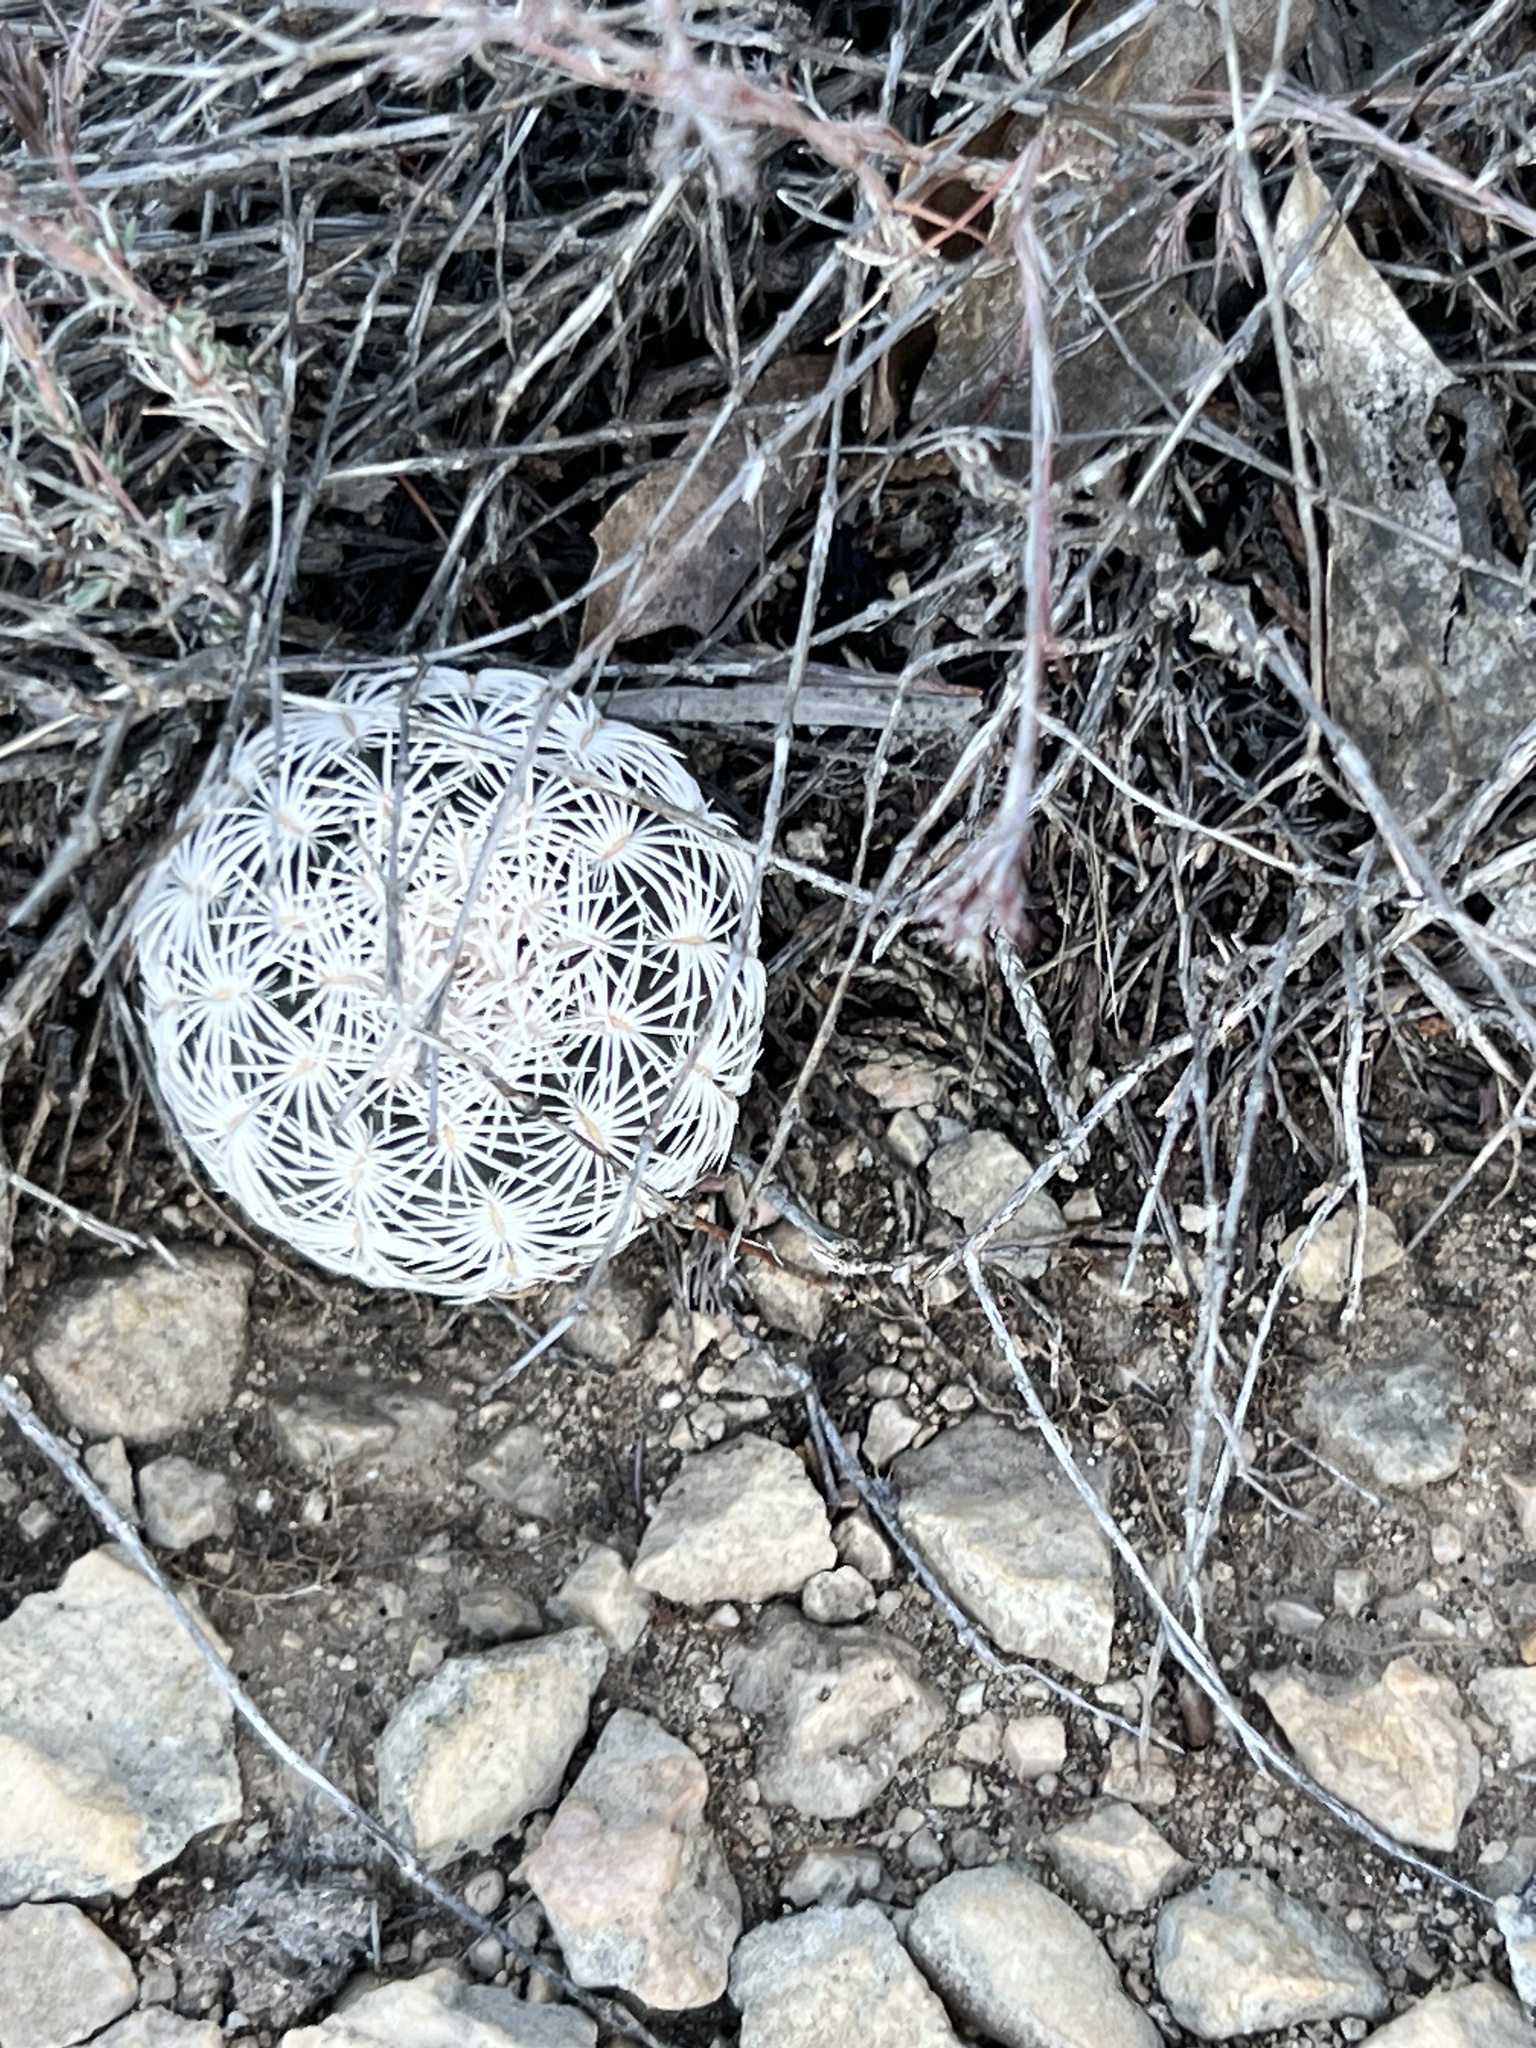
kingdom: Plantae
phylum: Tracheophyta
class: Magnoliopsida
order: Caryophyllales
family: Cactaceae
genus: Echinocereus
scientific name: Echinocereus reichenbachii
